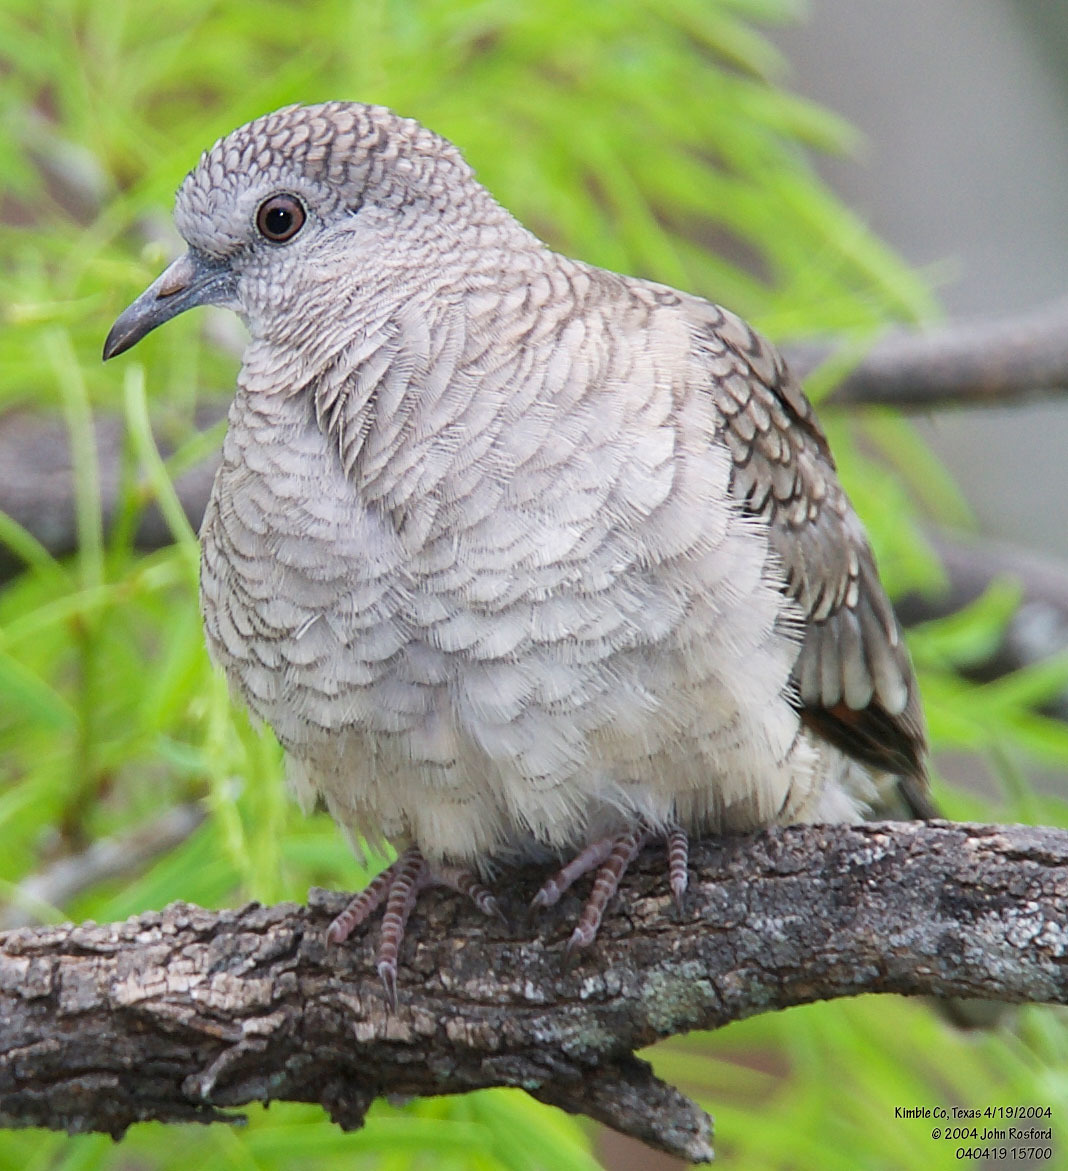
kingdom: Animalia
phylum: Chordata
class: Aves
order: Columbiformes
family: Columbidae
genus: Columbina
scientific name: Columbina inca
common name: Inca dove
